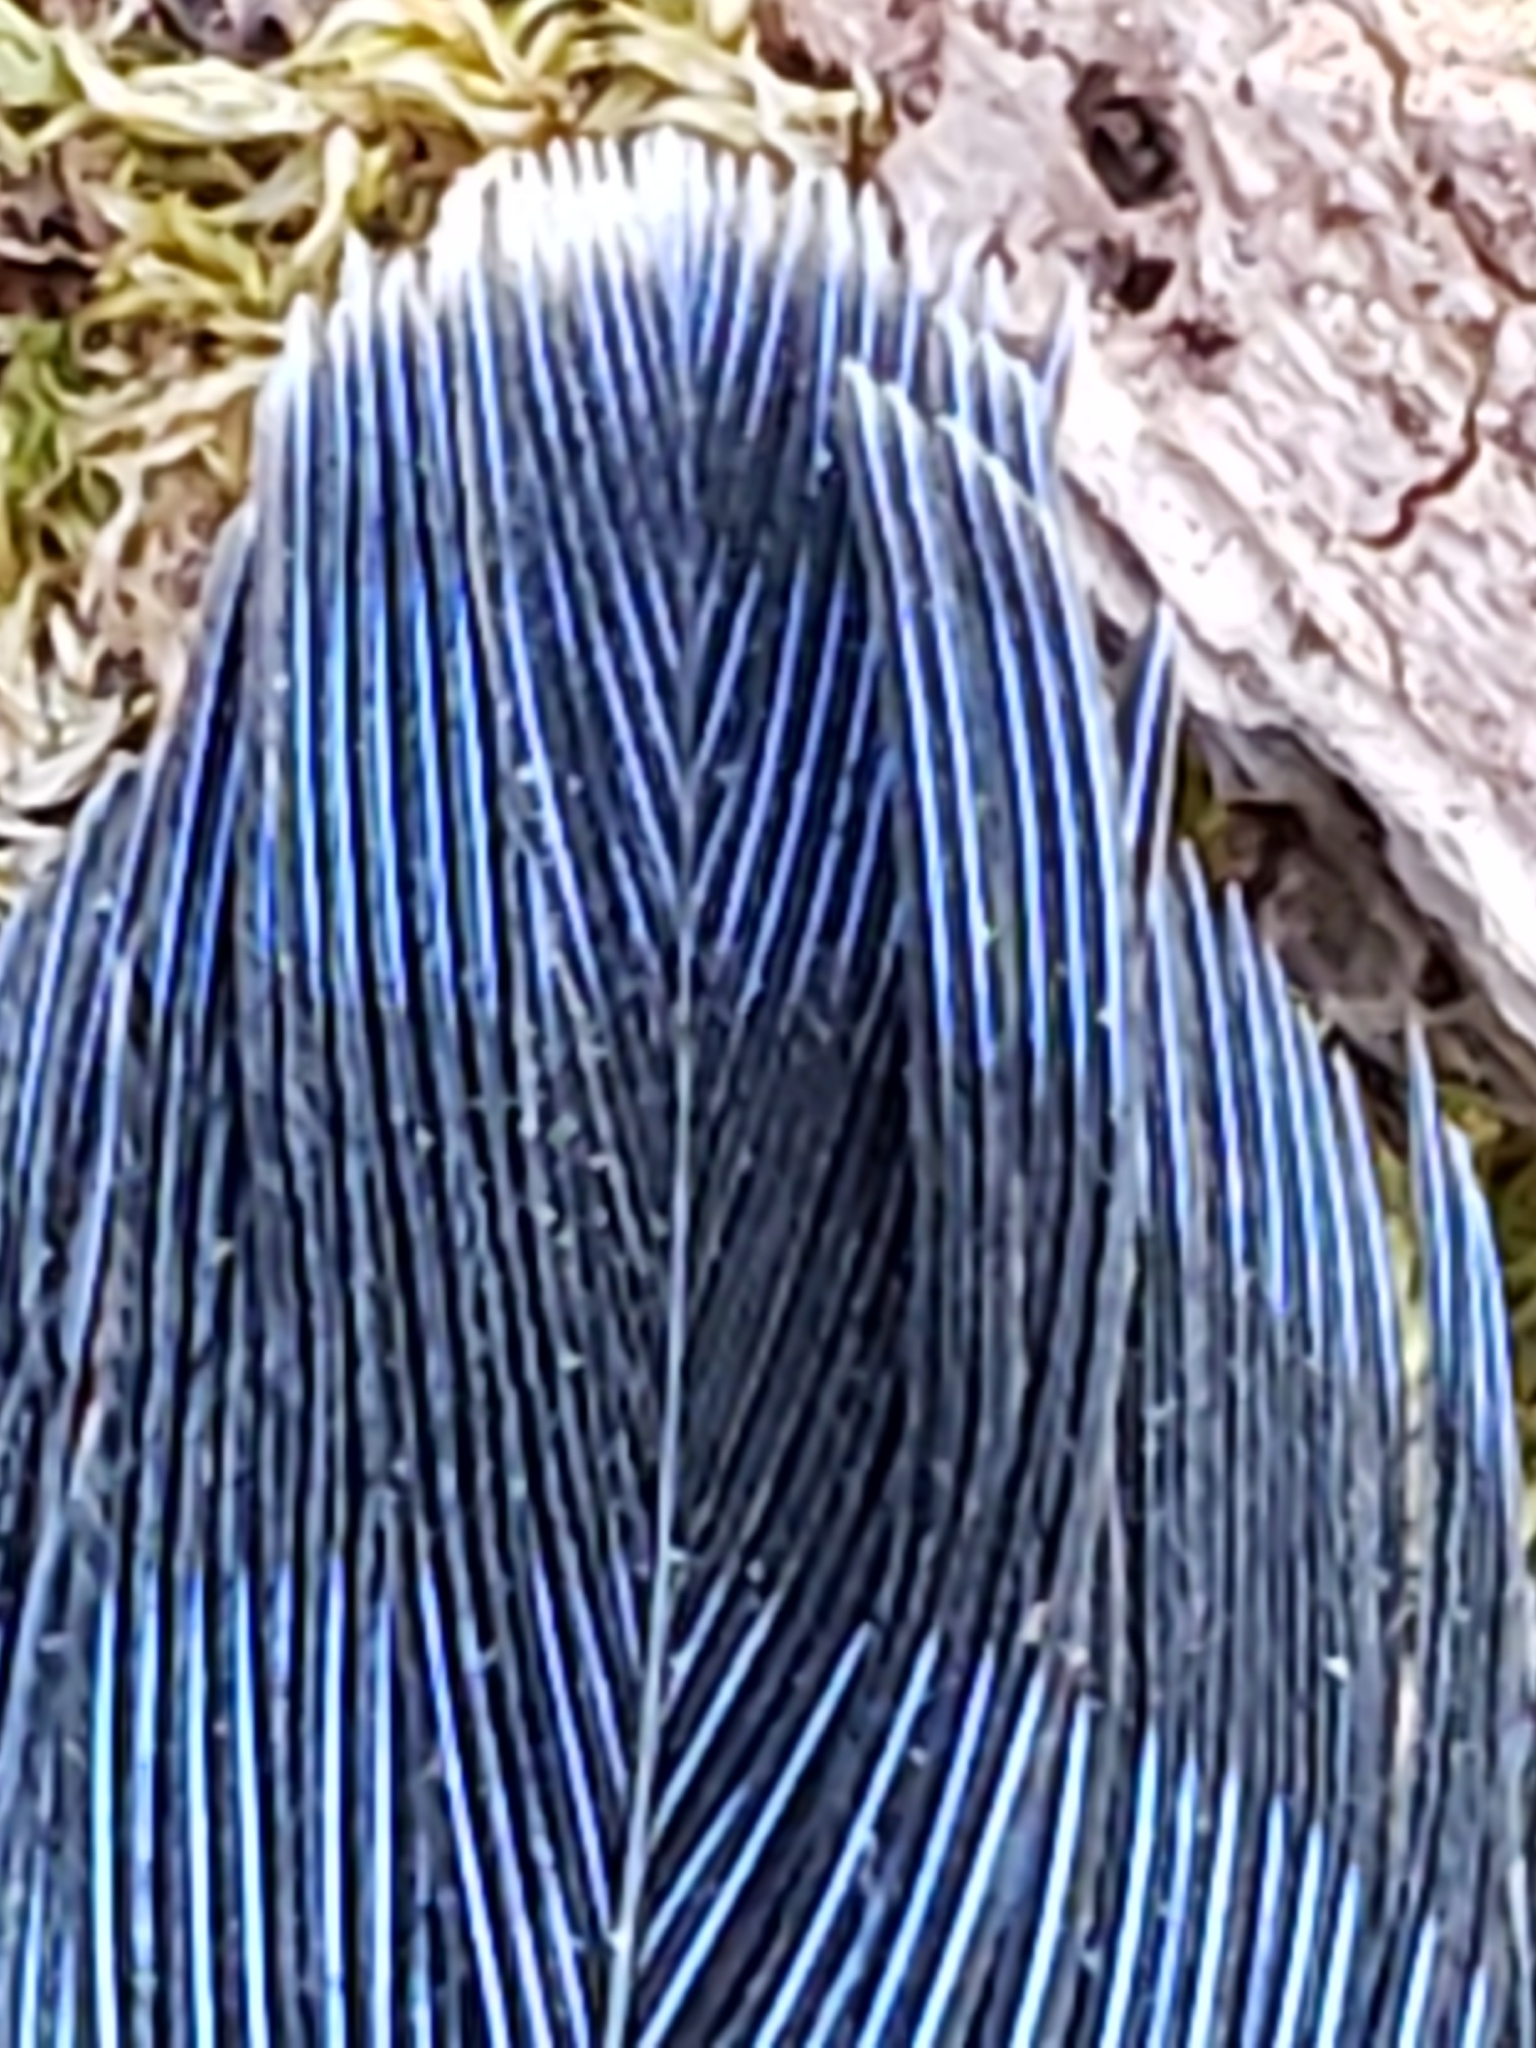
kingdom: Animalia
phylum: Chordata
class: Aves
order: Passeriformes
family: Corvidae
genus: Cyanocitta
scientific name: Cyanocitta cristata
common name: Blue jay
